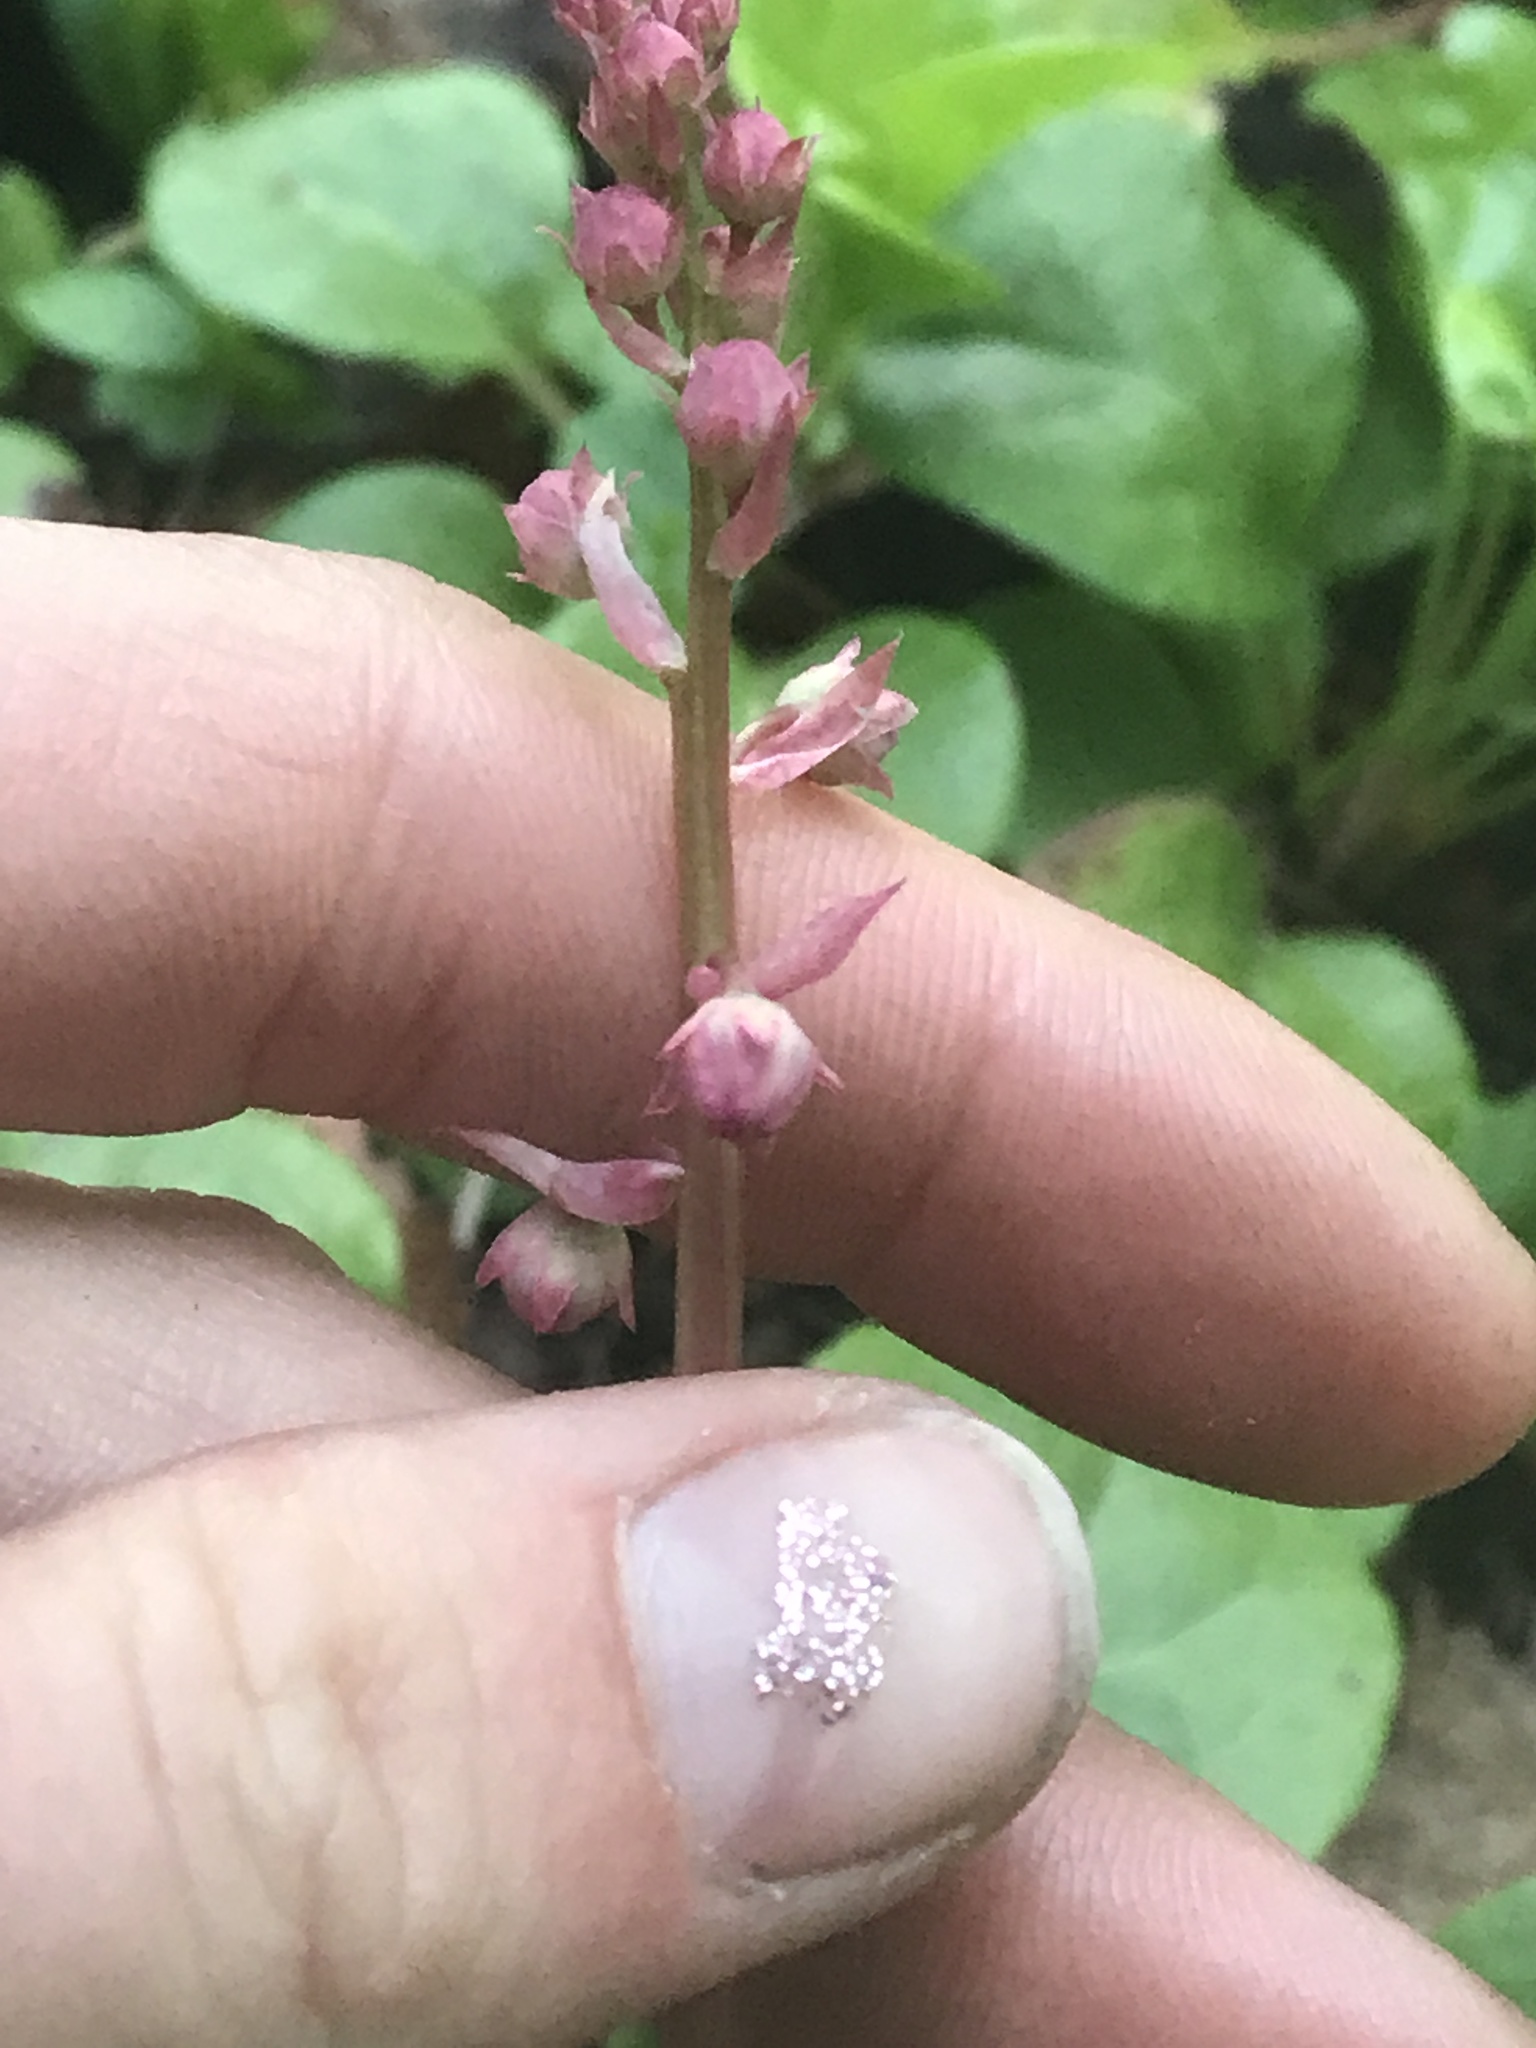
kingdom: Plantae
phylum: Tracheophyta
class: Magnoliopsida
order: Ericales
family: Ericaceae
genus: Pyrola
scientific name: Pyrola asarifolia
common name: Bog wintergreen
